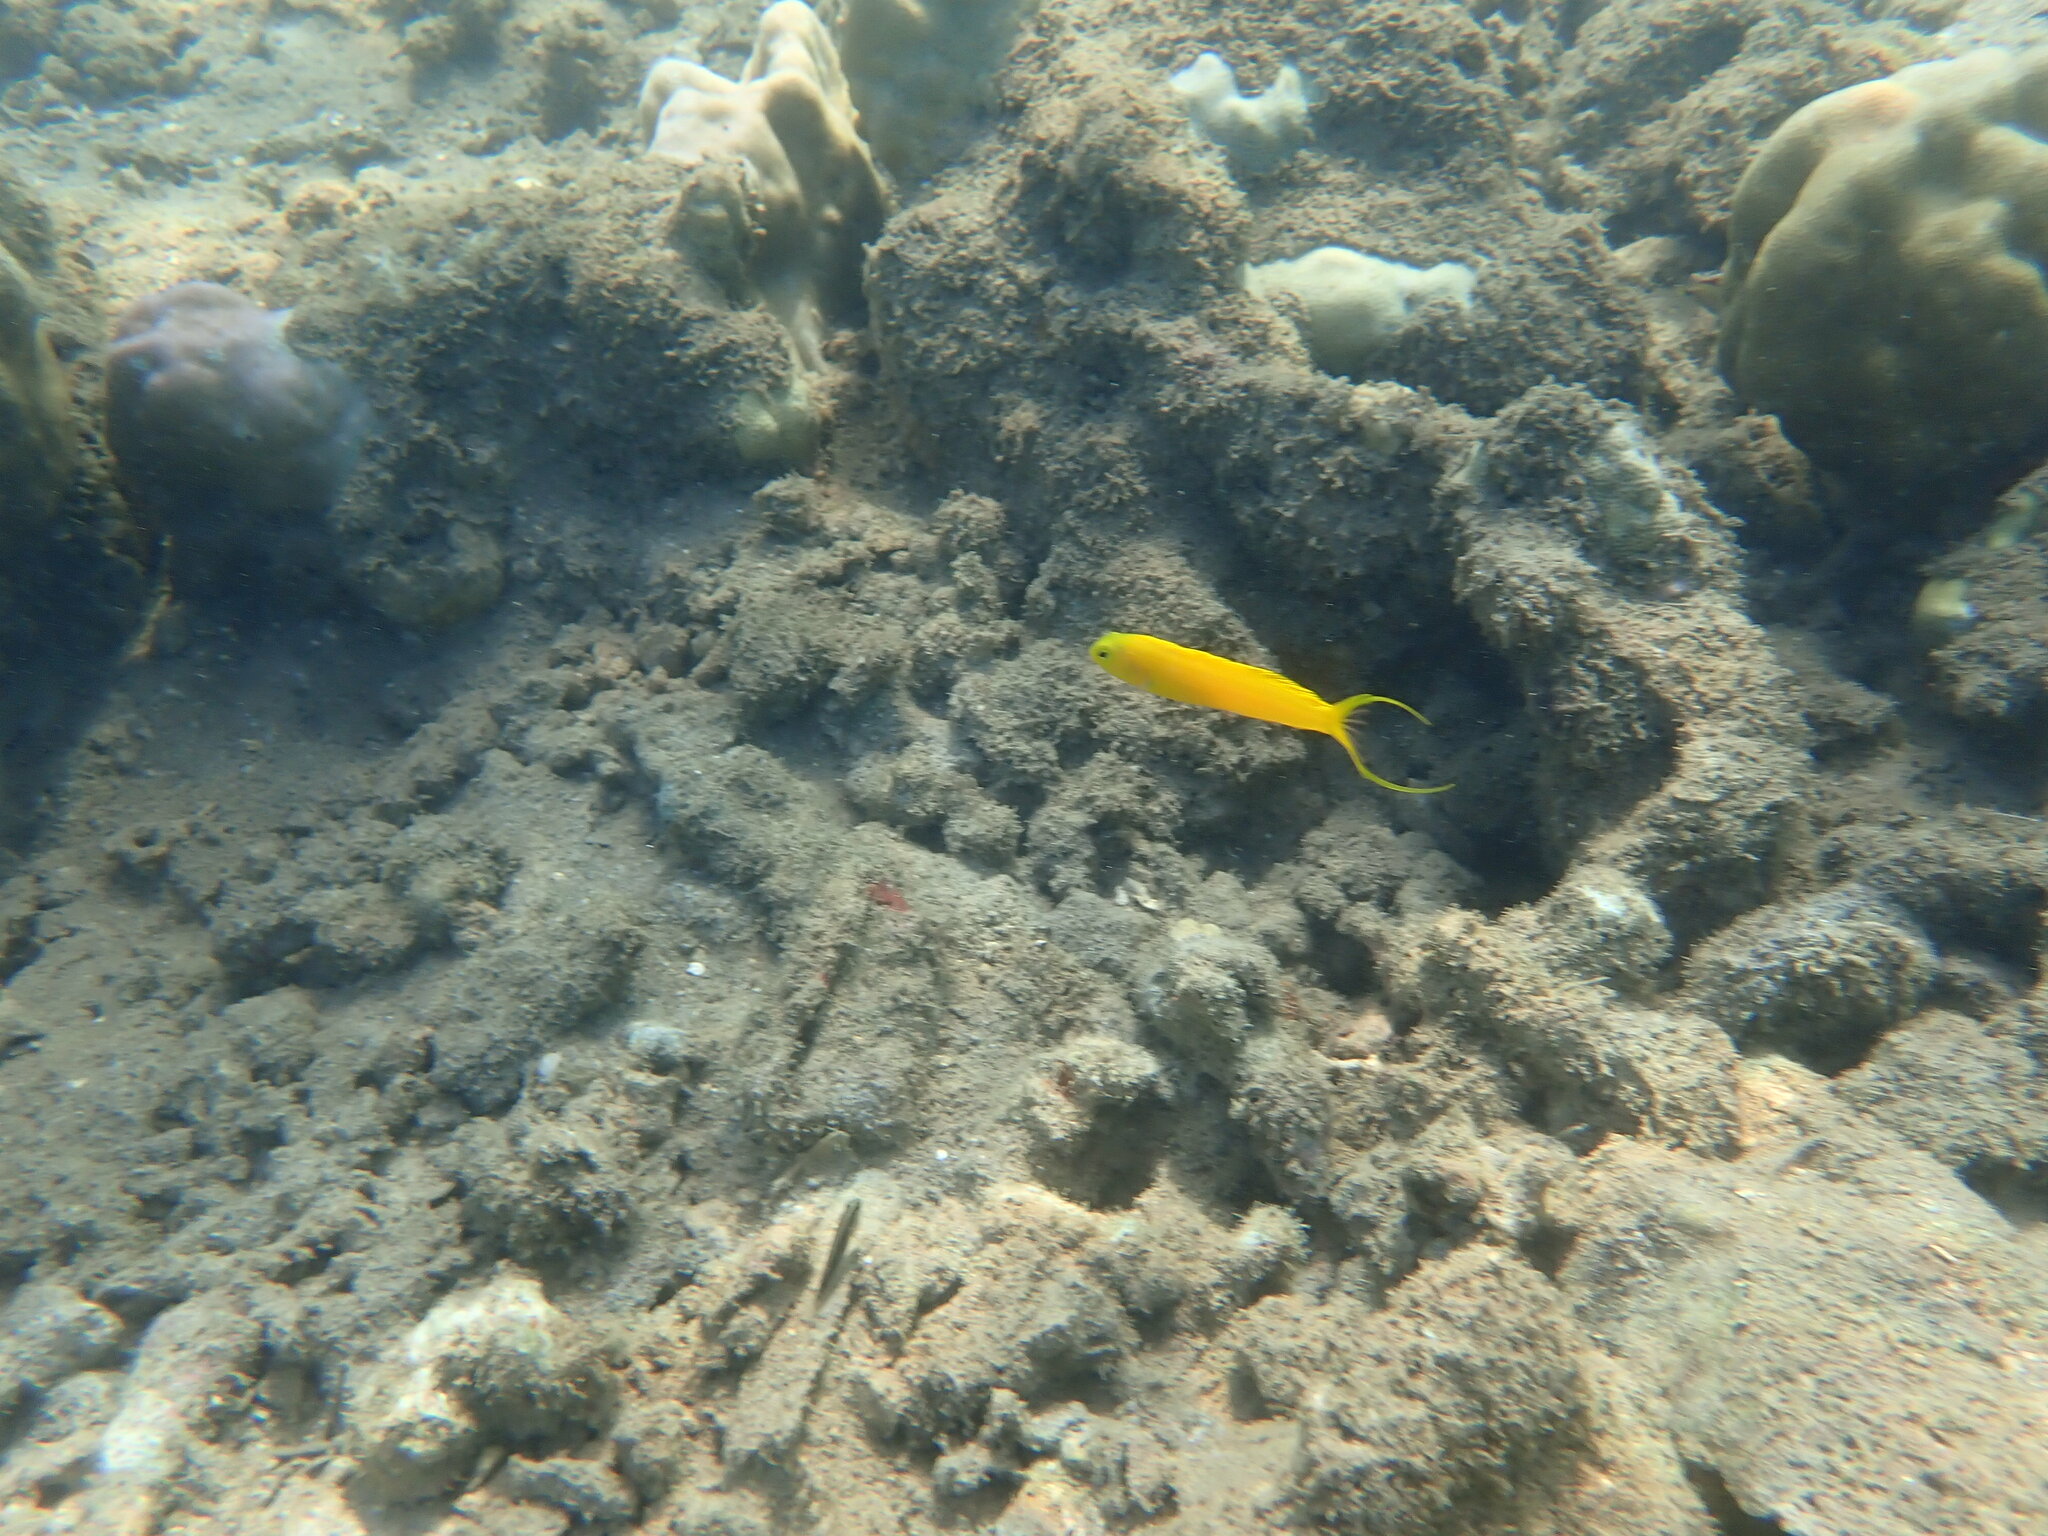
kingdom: Animalia
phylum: Chordata
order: Perciformes
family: Blenniidae
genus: Meiacanthus
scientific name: Meiacanthus oualanensis
